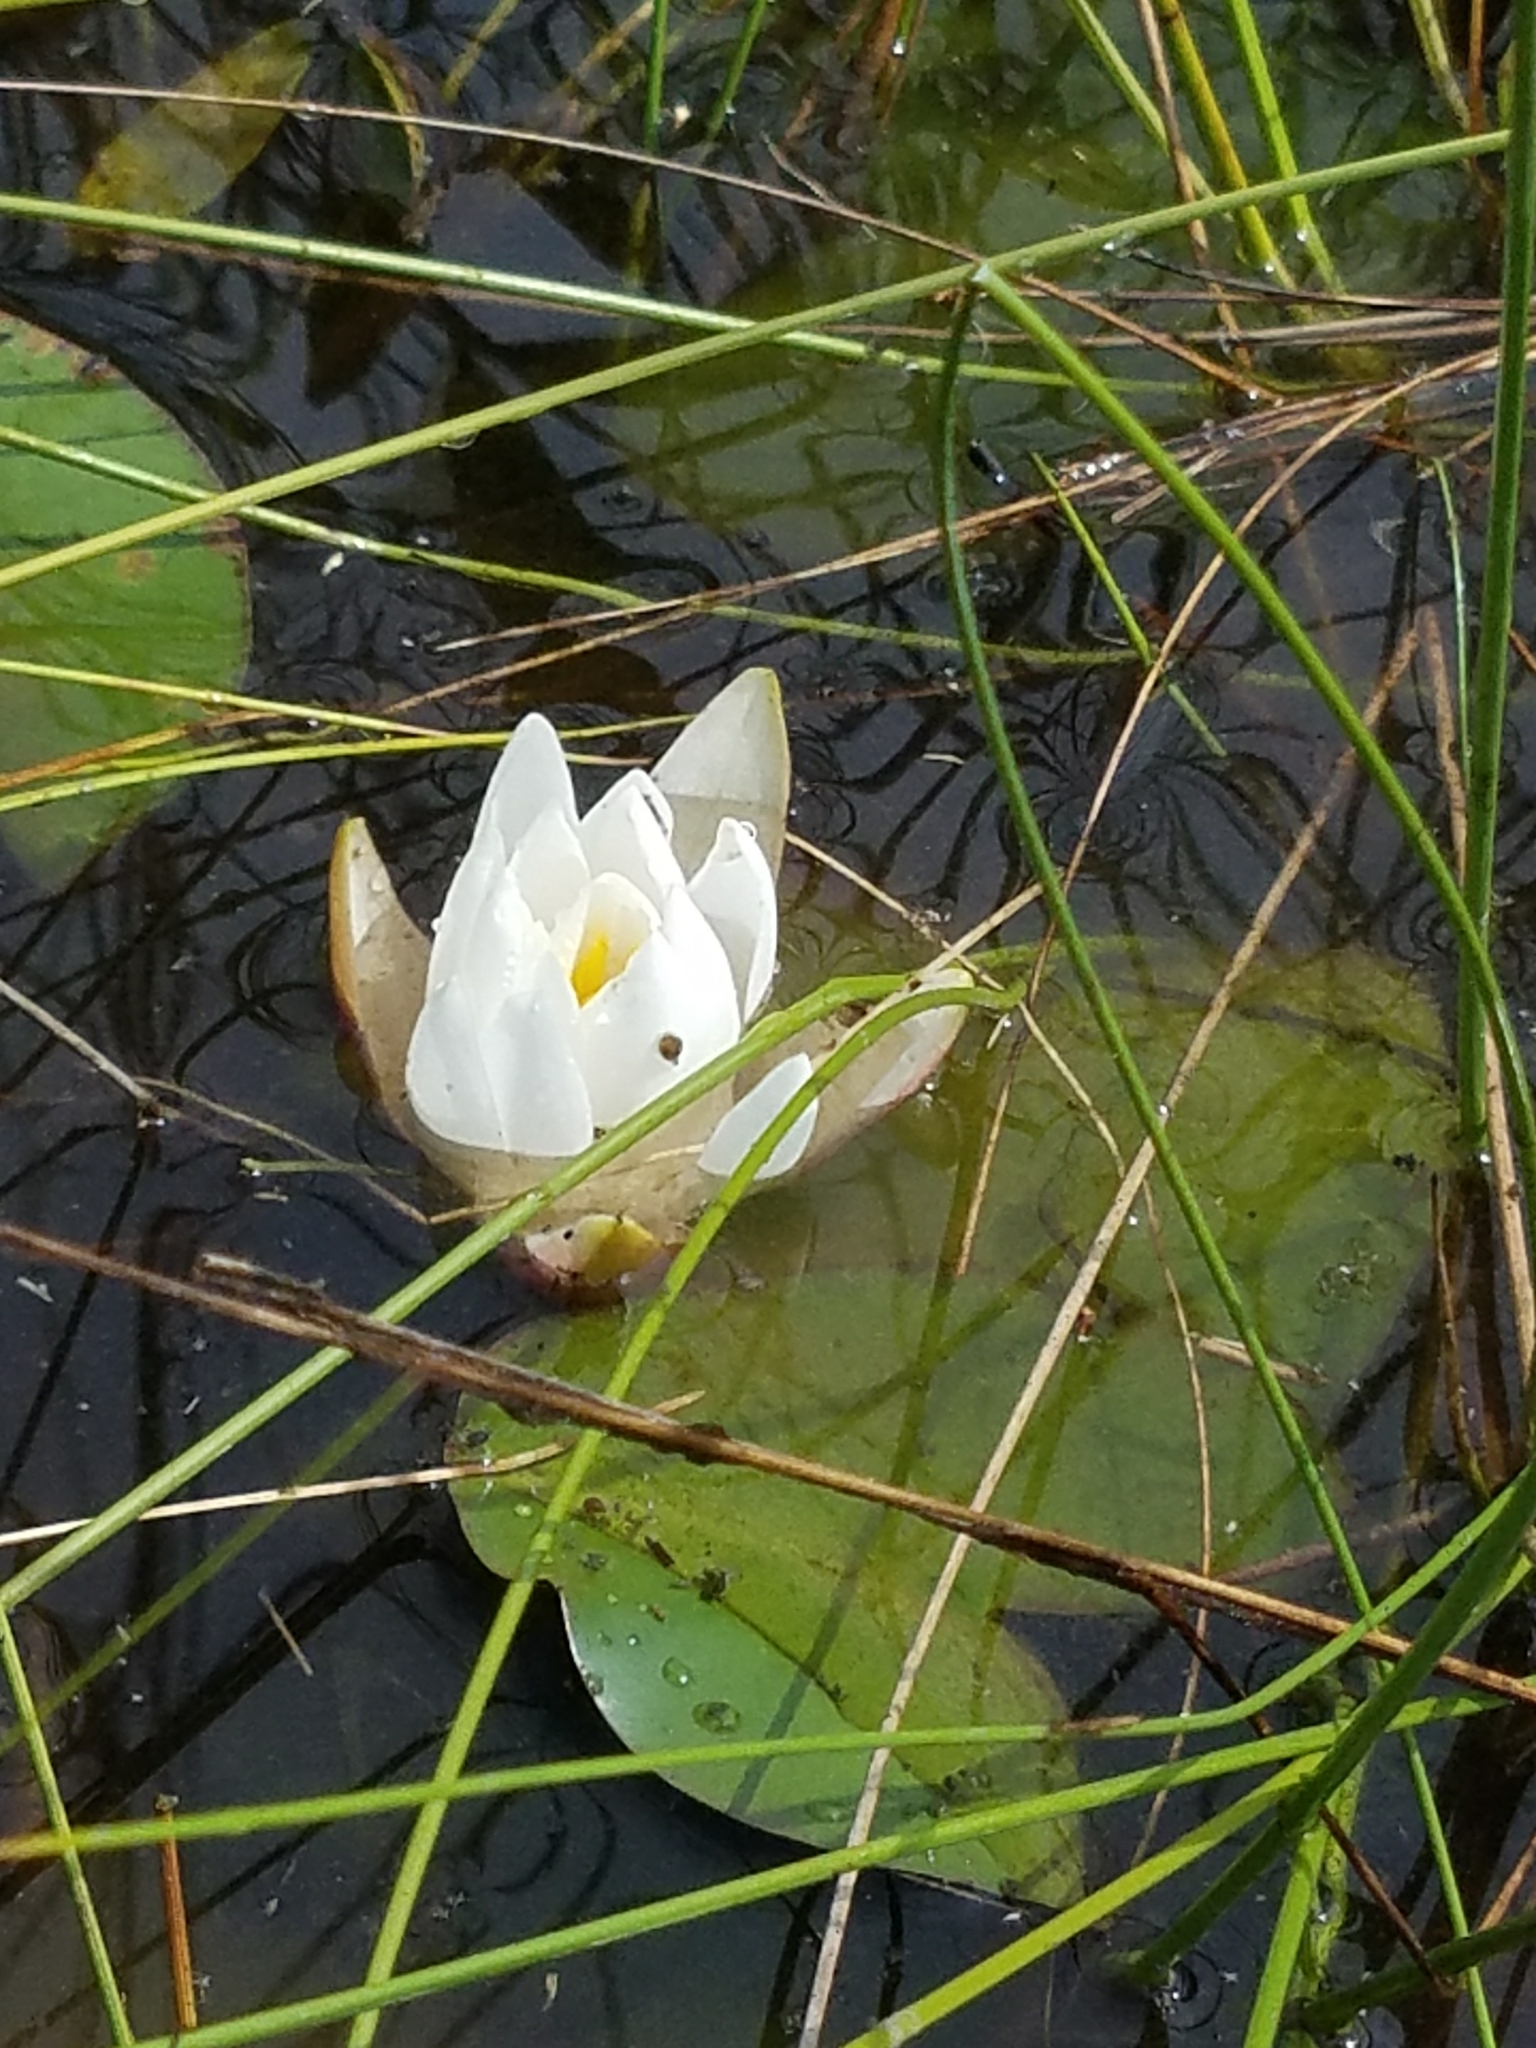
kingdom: Plantae
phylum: Tracheophyta
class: Magnoliopsida
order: Nymphaeales
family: Nymphaeaceae
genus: Nymphaea
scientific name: Nymphaea odorata
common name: Fragrant water-lily
